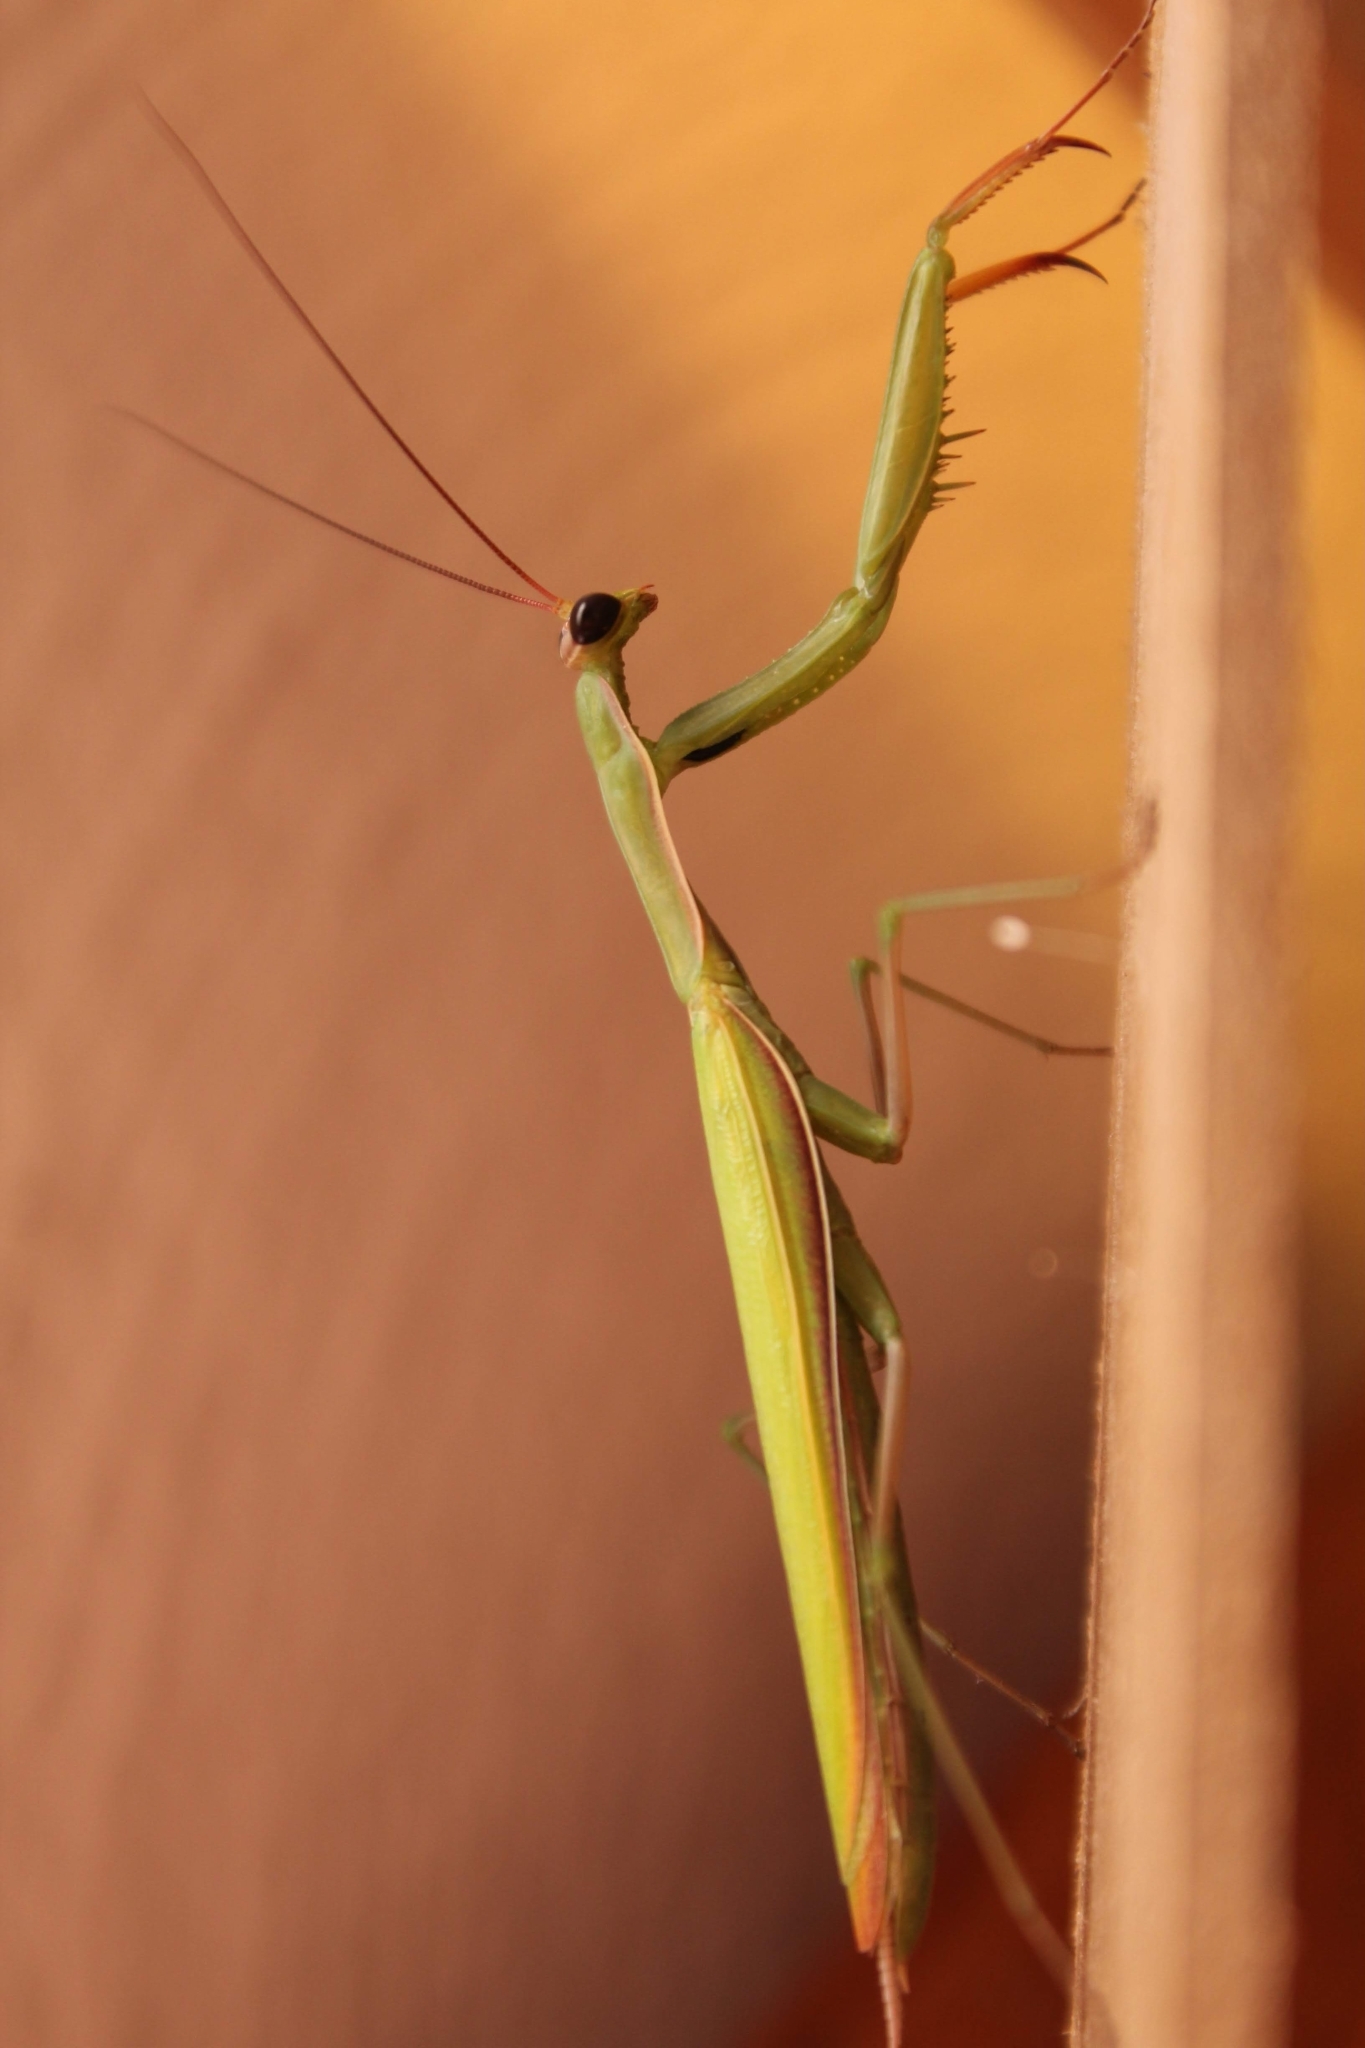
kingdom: Animalia
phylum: Arthropoda
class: Insecta
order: Mantodea
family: Mantidae
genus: Mantis
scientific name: Mantis religiosa
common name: Praying mantis
